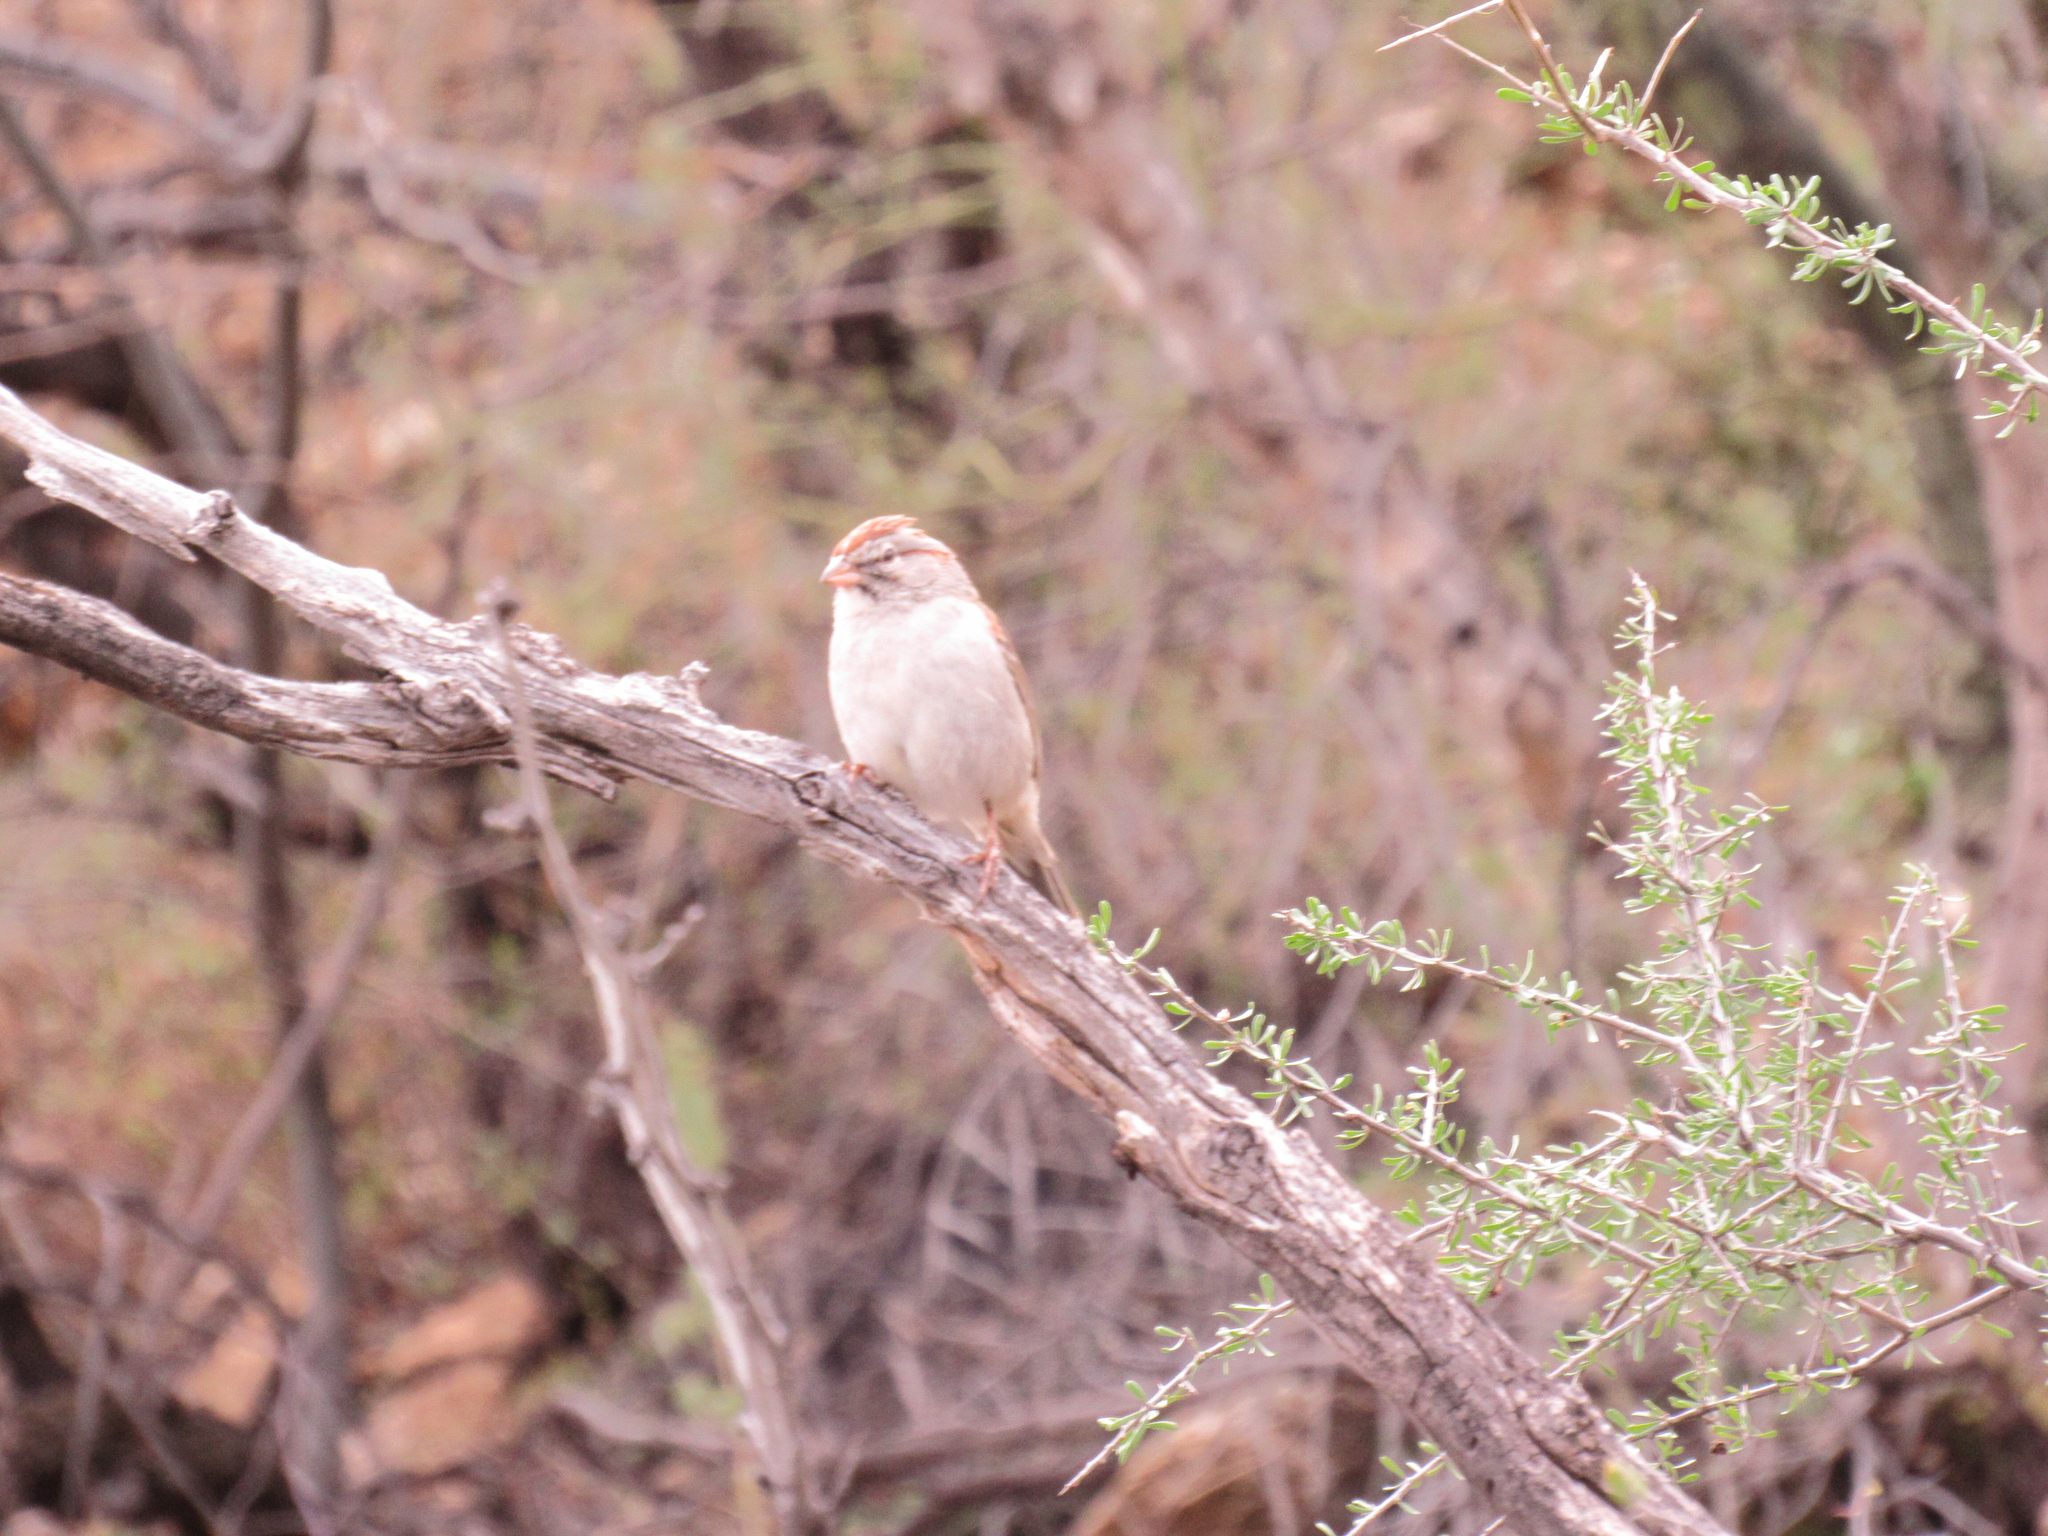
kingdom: Animalia
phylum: Chordata
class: Aves
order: Passeriformes
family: Passerellidae
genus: Peucaea
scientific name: Peucaea carpalis
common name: Rufous-winged sparrow
